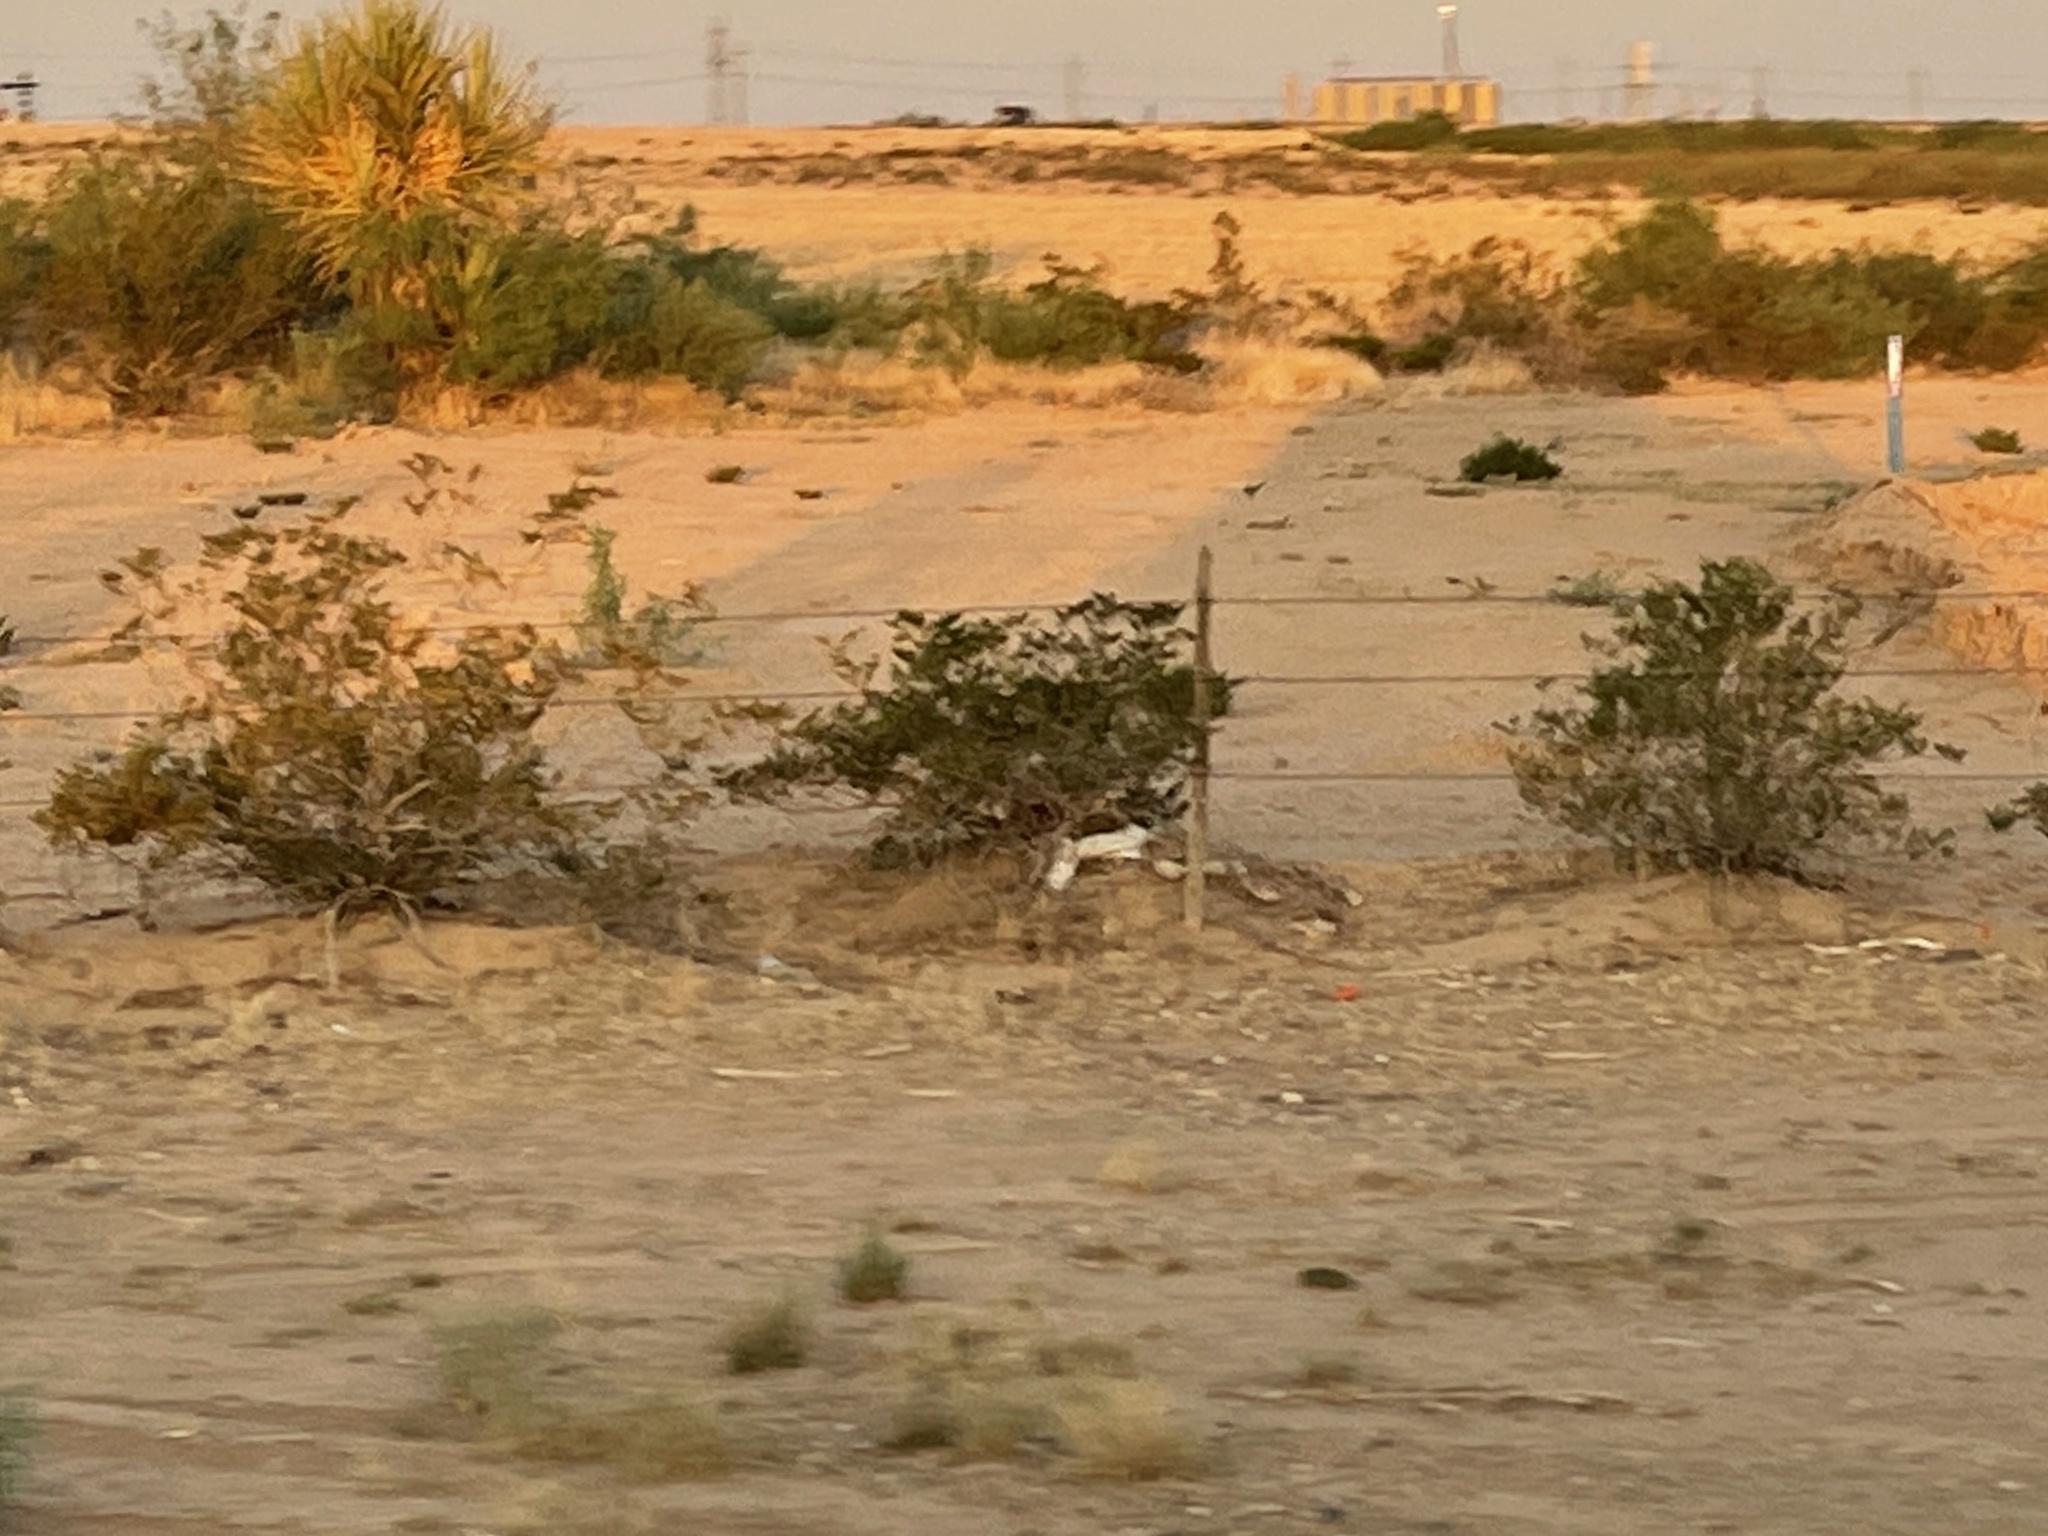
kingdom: Plantae
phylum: Tracheophyta
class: Magnoliopsida
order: Zygophyllales
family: Zygophyllaceae
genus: Larrea
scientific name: Larrea tridentata
